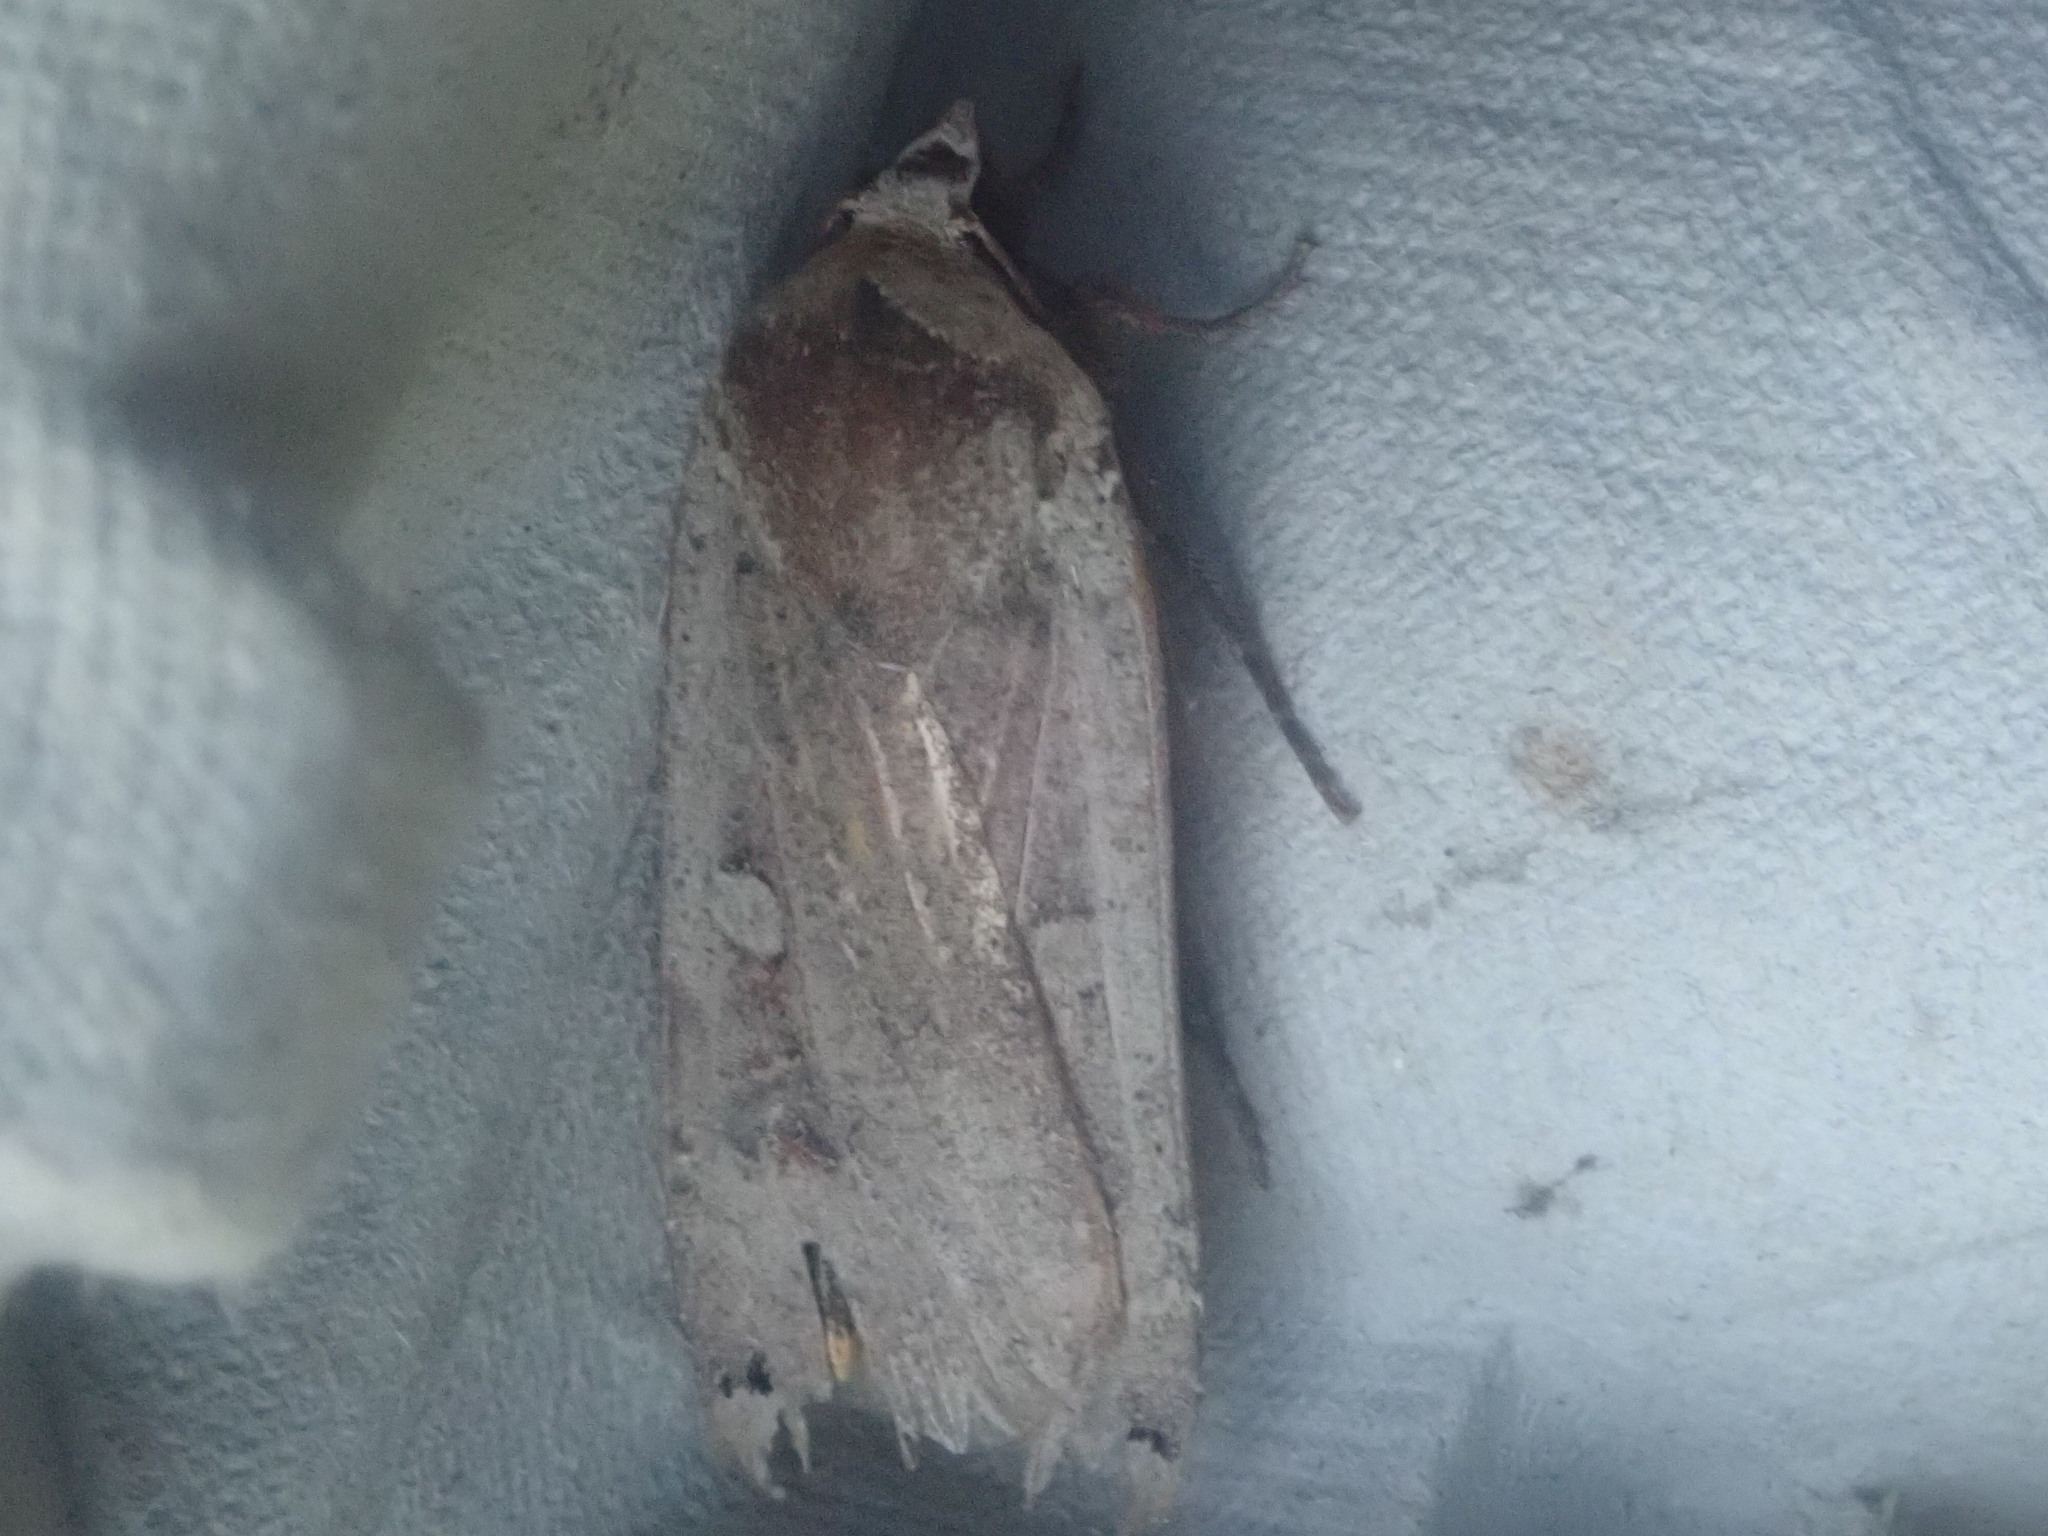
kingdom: Animalia
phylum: Arthropoda
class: Insecta
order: Lepidoptera
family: Noctuidae
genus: Noctua
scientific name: Noctua pronuba
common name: Large yellow underwing
